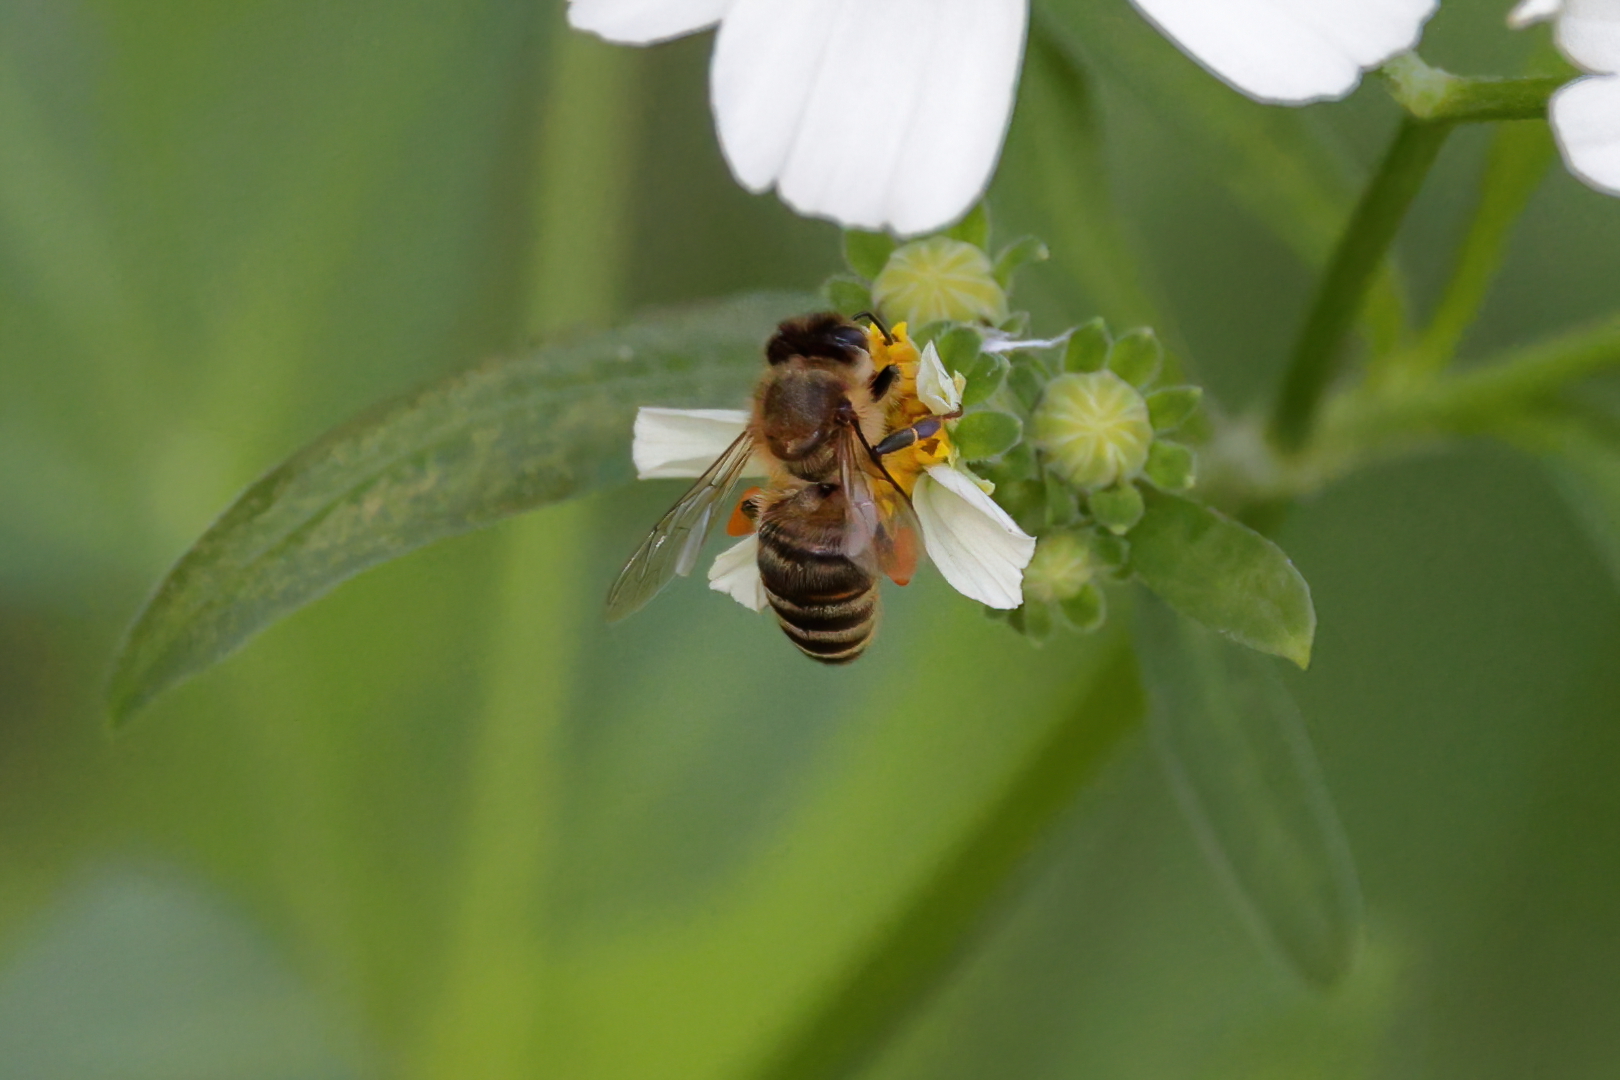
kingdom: Animalia
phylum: Arthropoda
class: Insecta
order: Hymenoptera
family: Apidae
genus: Apis
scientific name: Apis mellifera
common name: Honey bee
